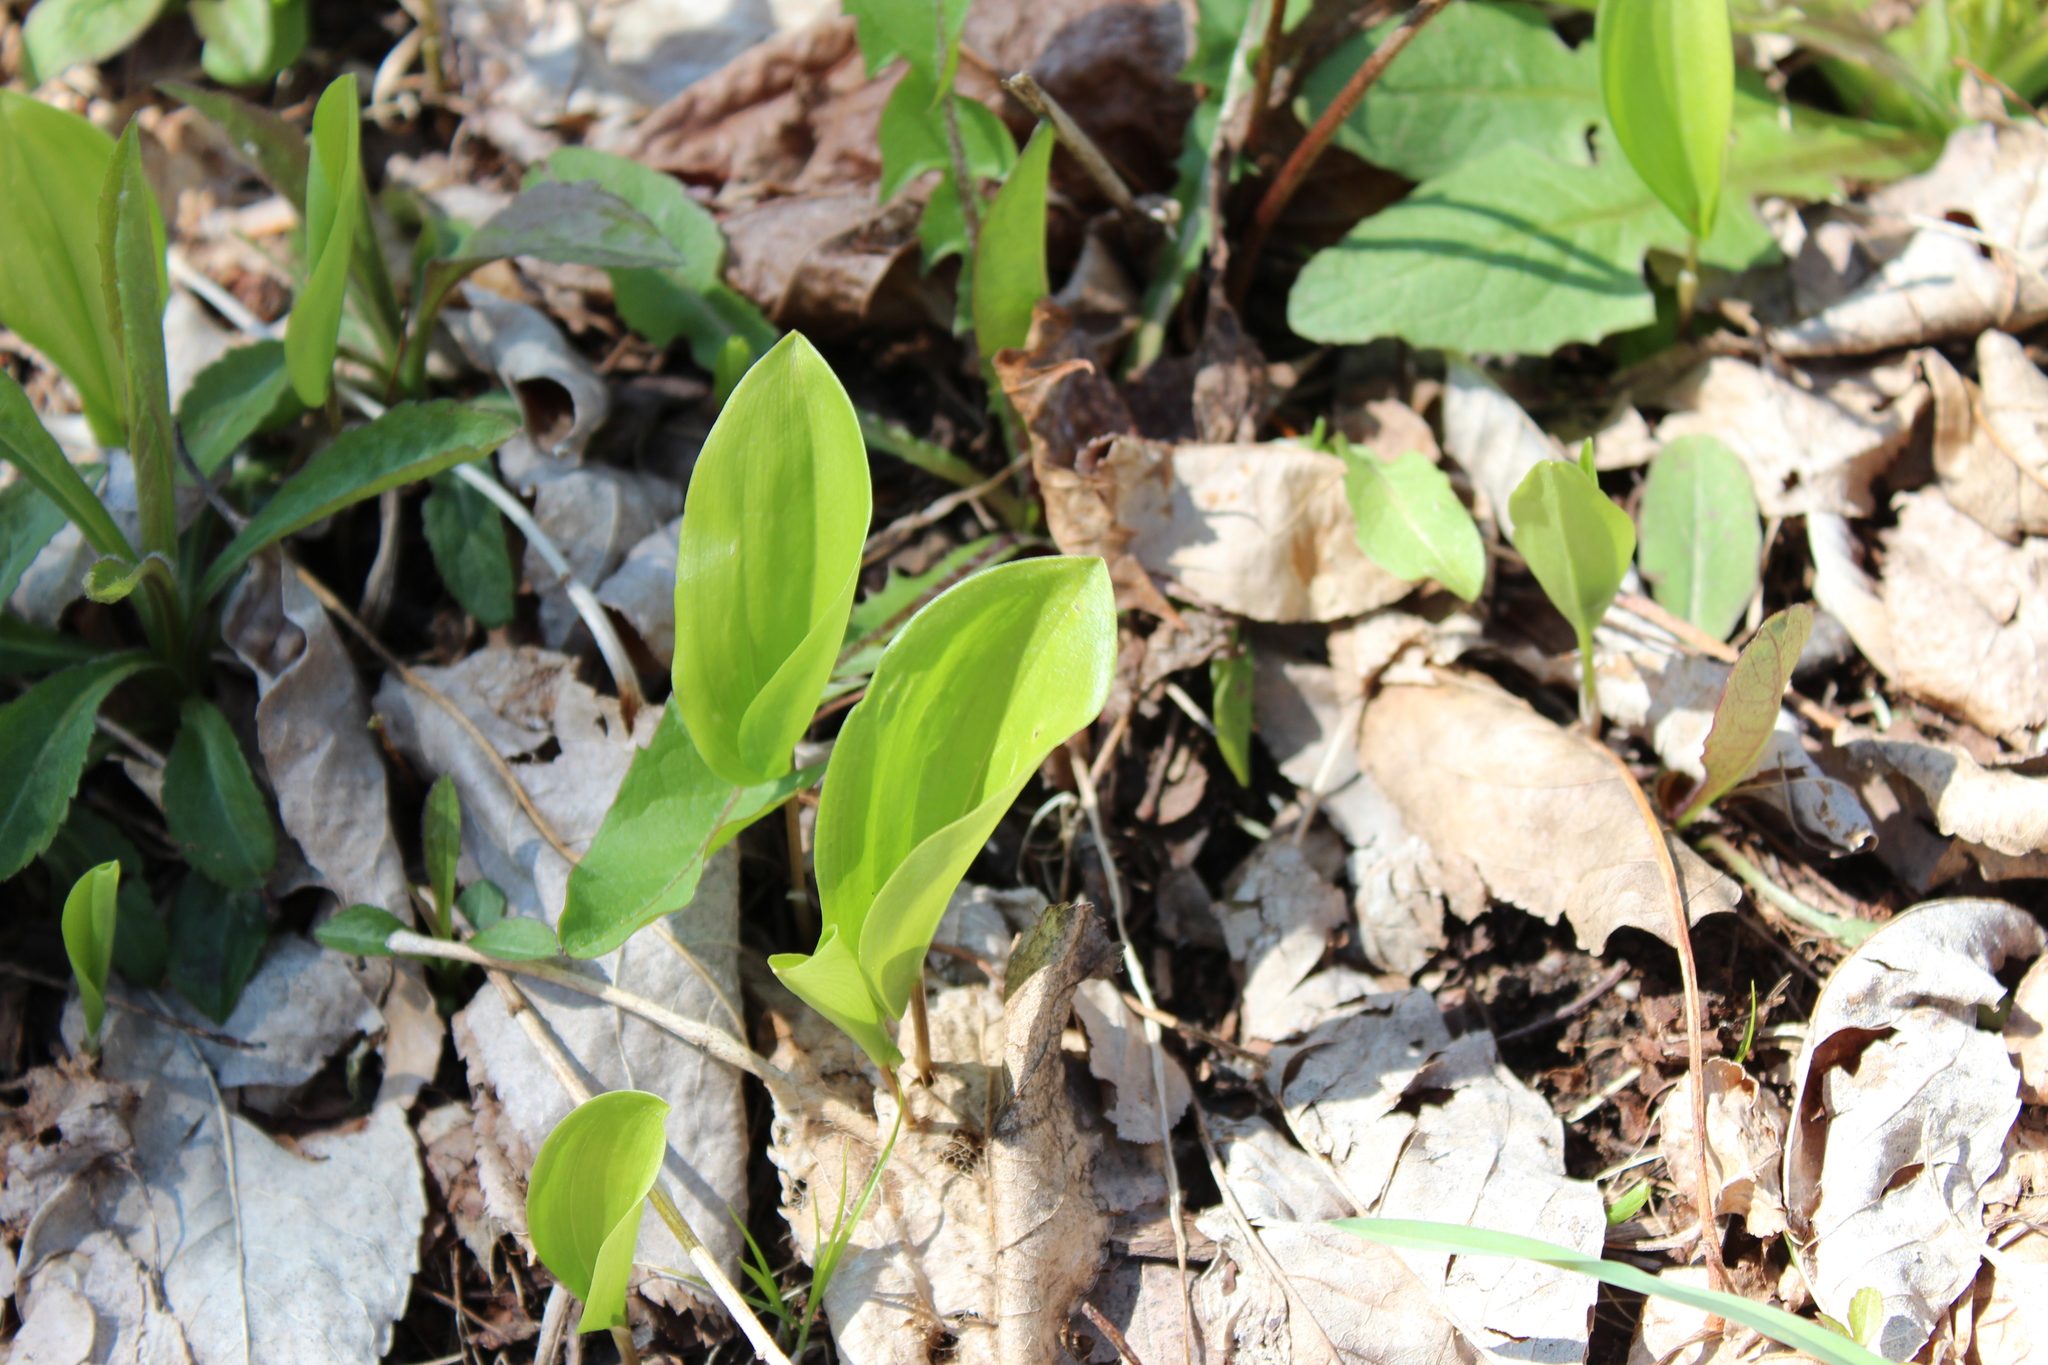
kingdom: Plantae
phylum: Tracheophyta
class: Liliopsida
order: Asparagales
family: Asparagaceae
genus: Maianthemum
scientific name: Maianthemum canadense
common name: False lily-of-the-valley
